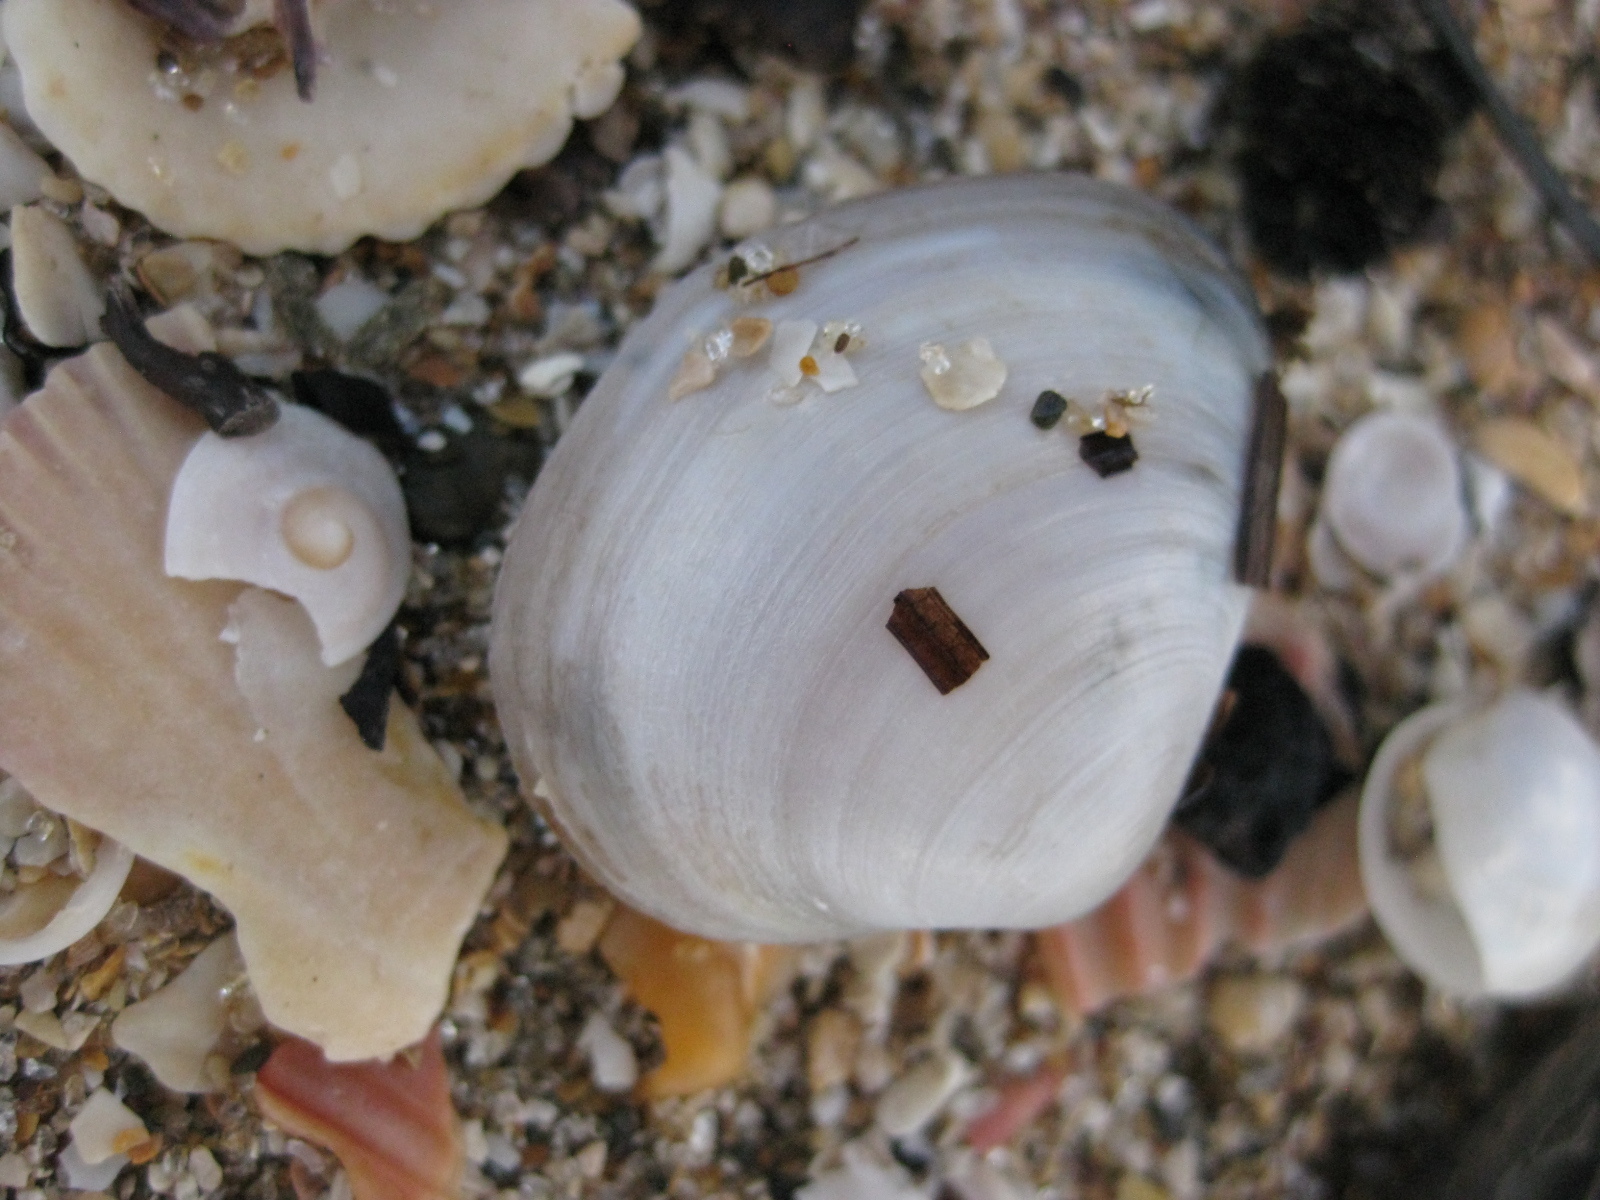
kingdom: Animalia
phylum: Mollusca
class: Bivalvia
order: Venerida
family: Mactridae
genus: Cyclomactra
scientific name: Cyclomactra ovata
